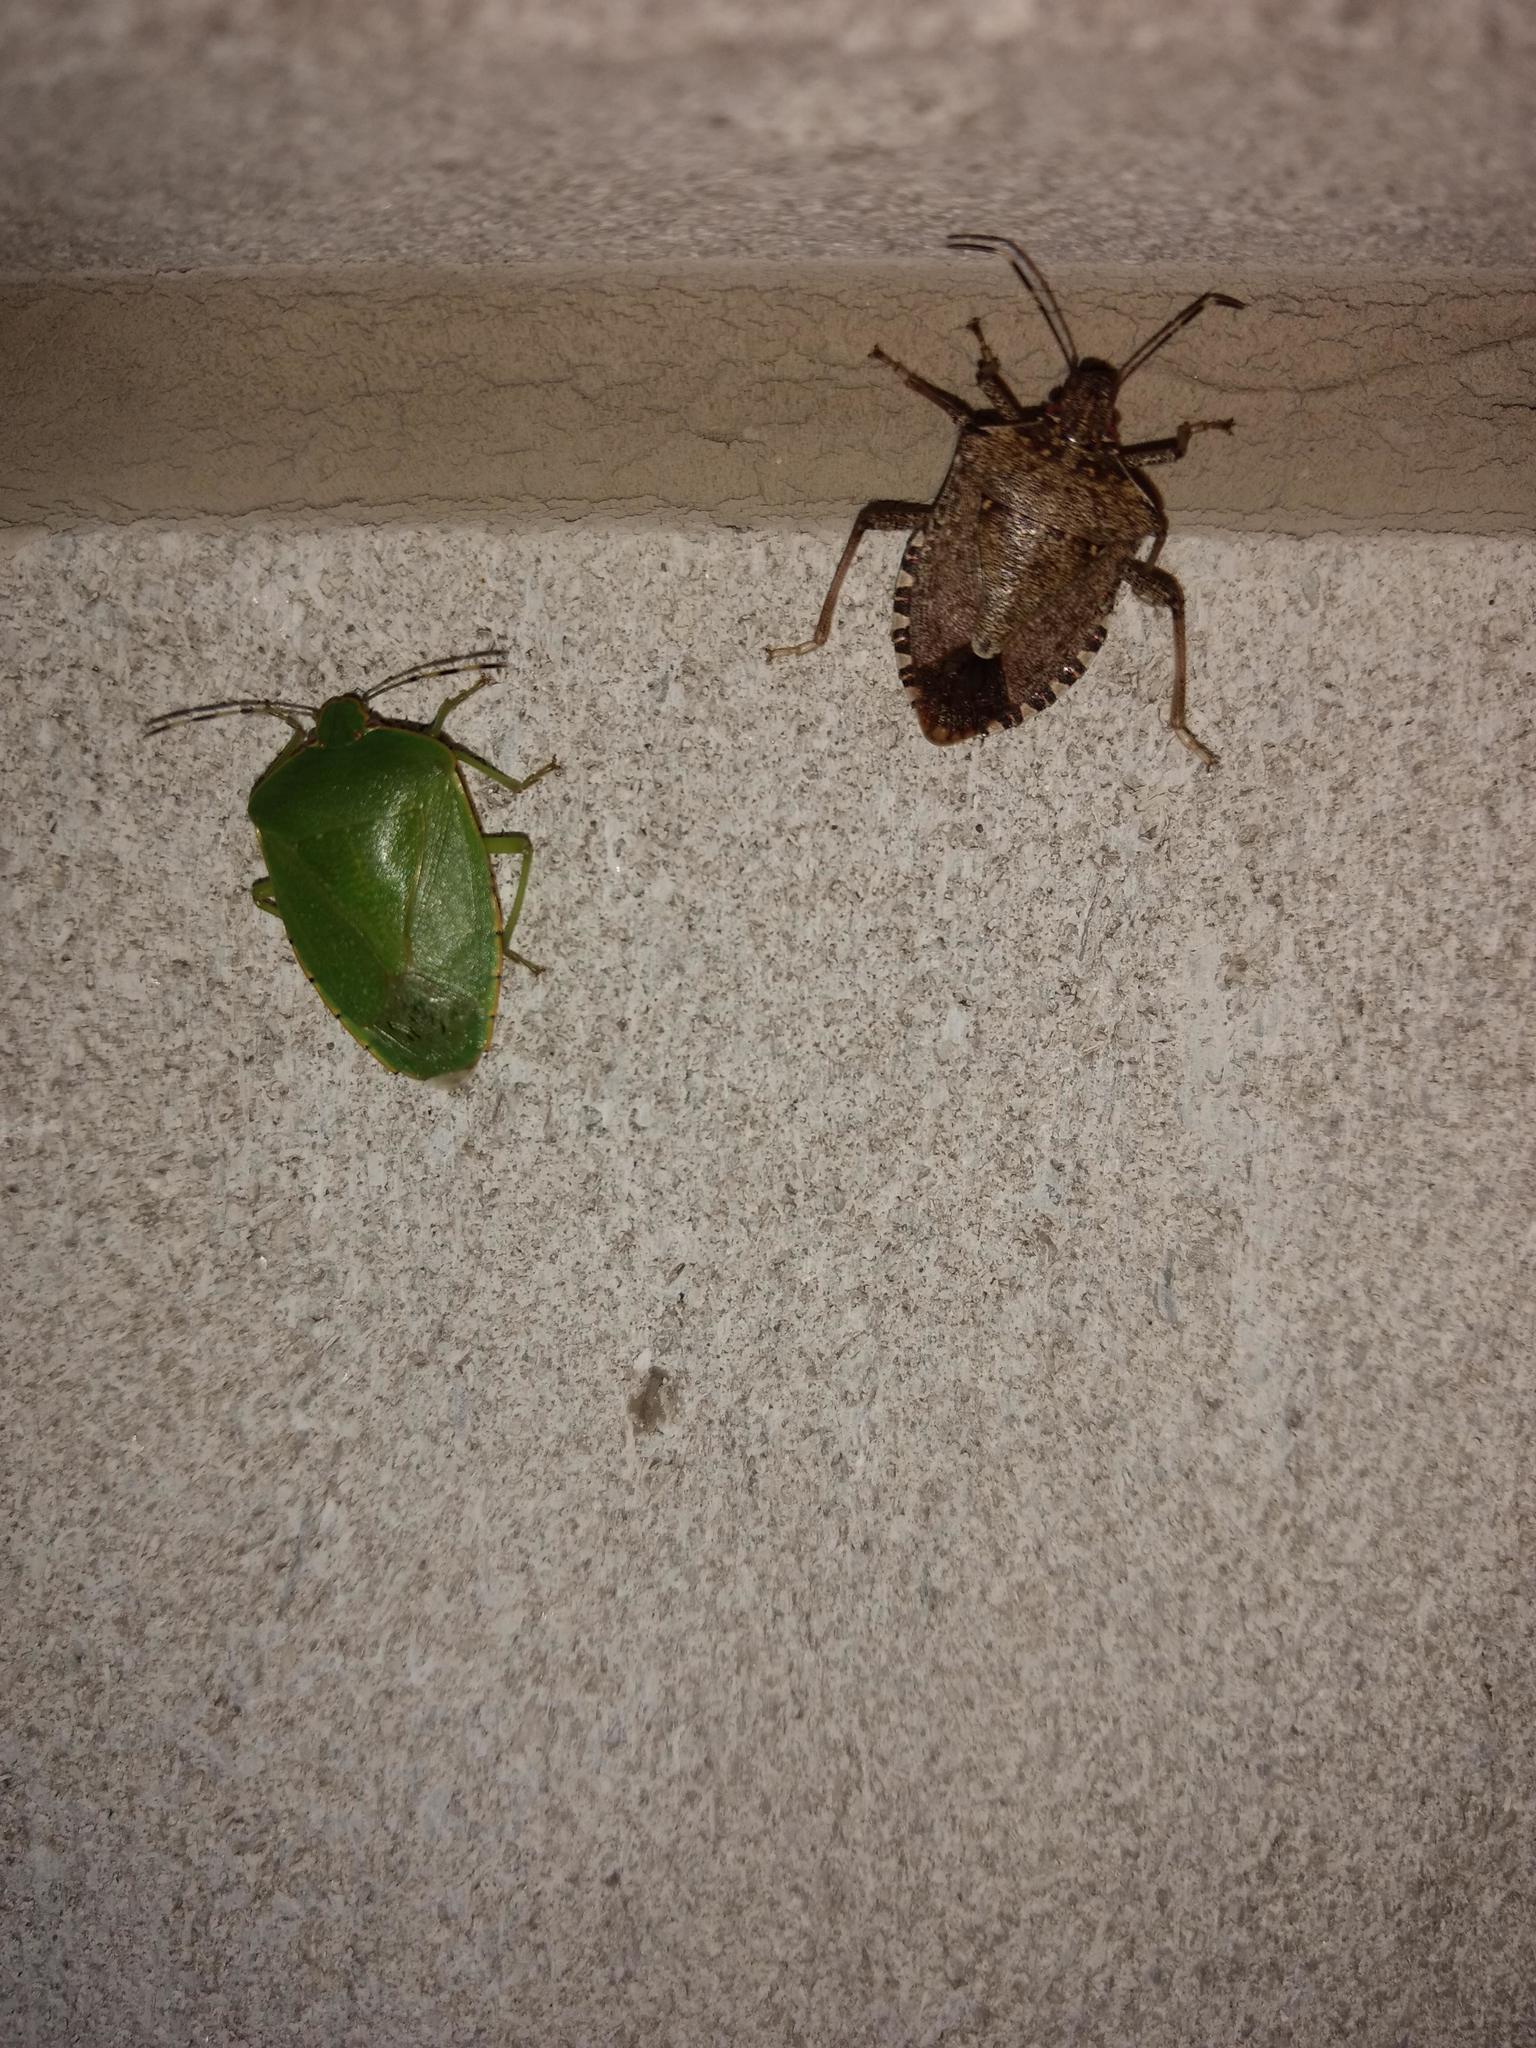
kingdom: Animalia
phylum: Arthropoda
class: Insecta
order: Hemiptera
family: Pentatomidae
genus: Chinavia
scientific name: Chinavia hilaris
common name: Green stink bug
